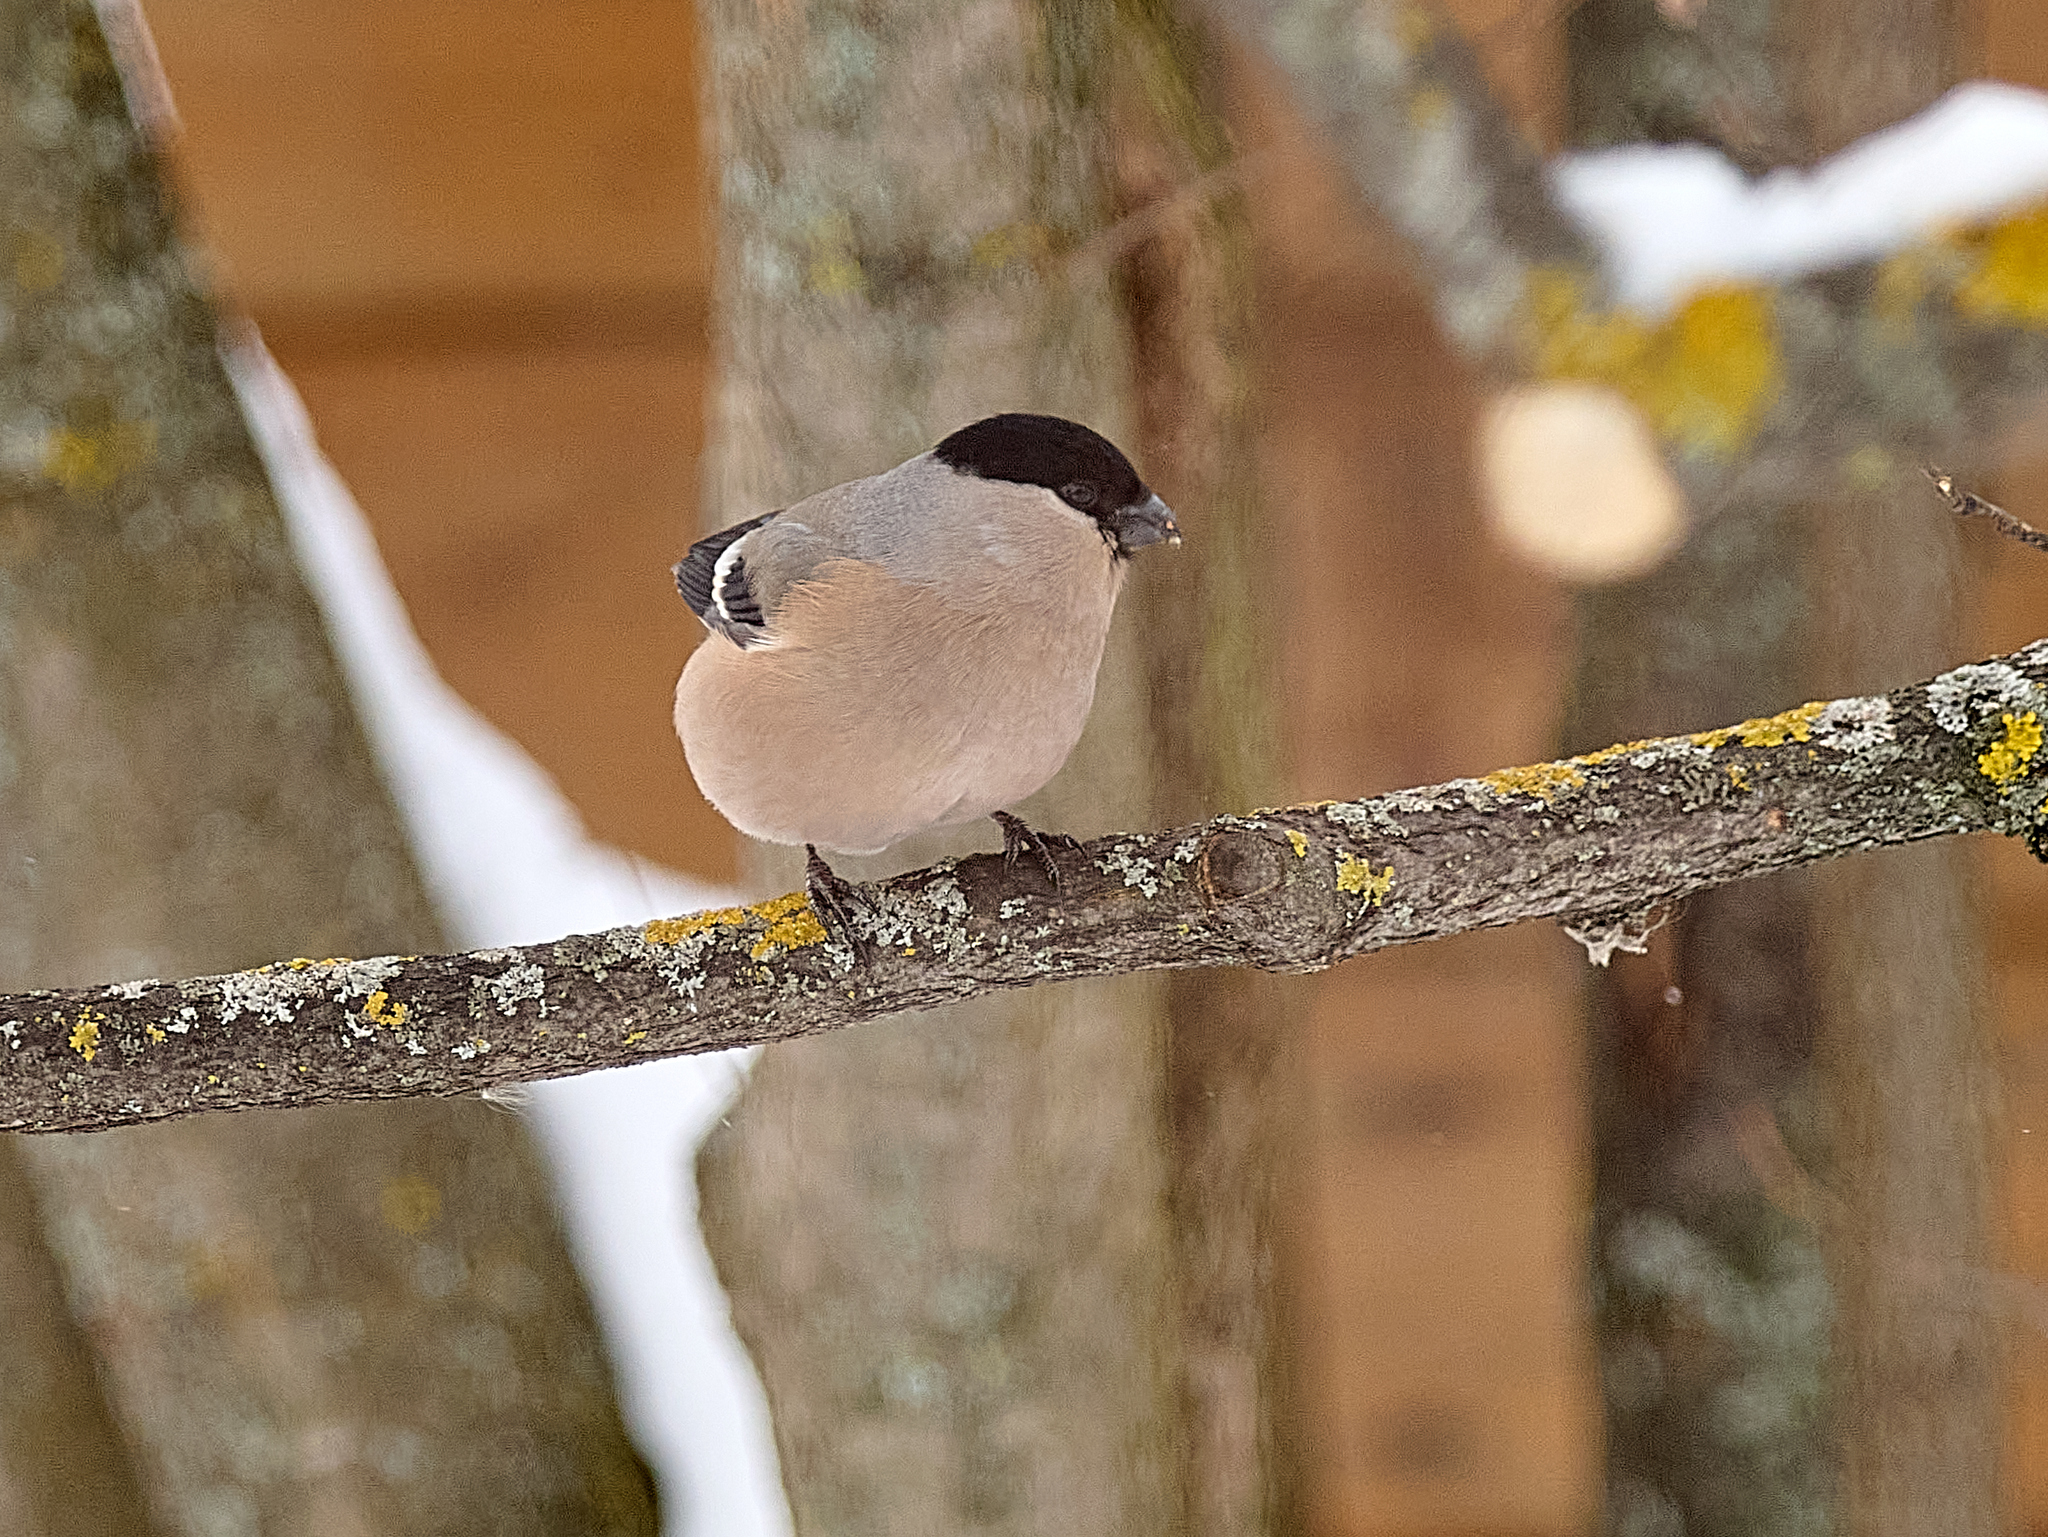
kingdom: Animalia
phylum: Chordata
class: Aves
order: Passeriformes
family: Fringillidae
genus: Pyrrhula
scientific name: Pyrrhula pyrrhula
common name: Eurasian bullfinch
